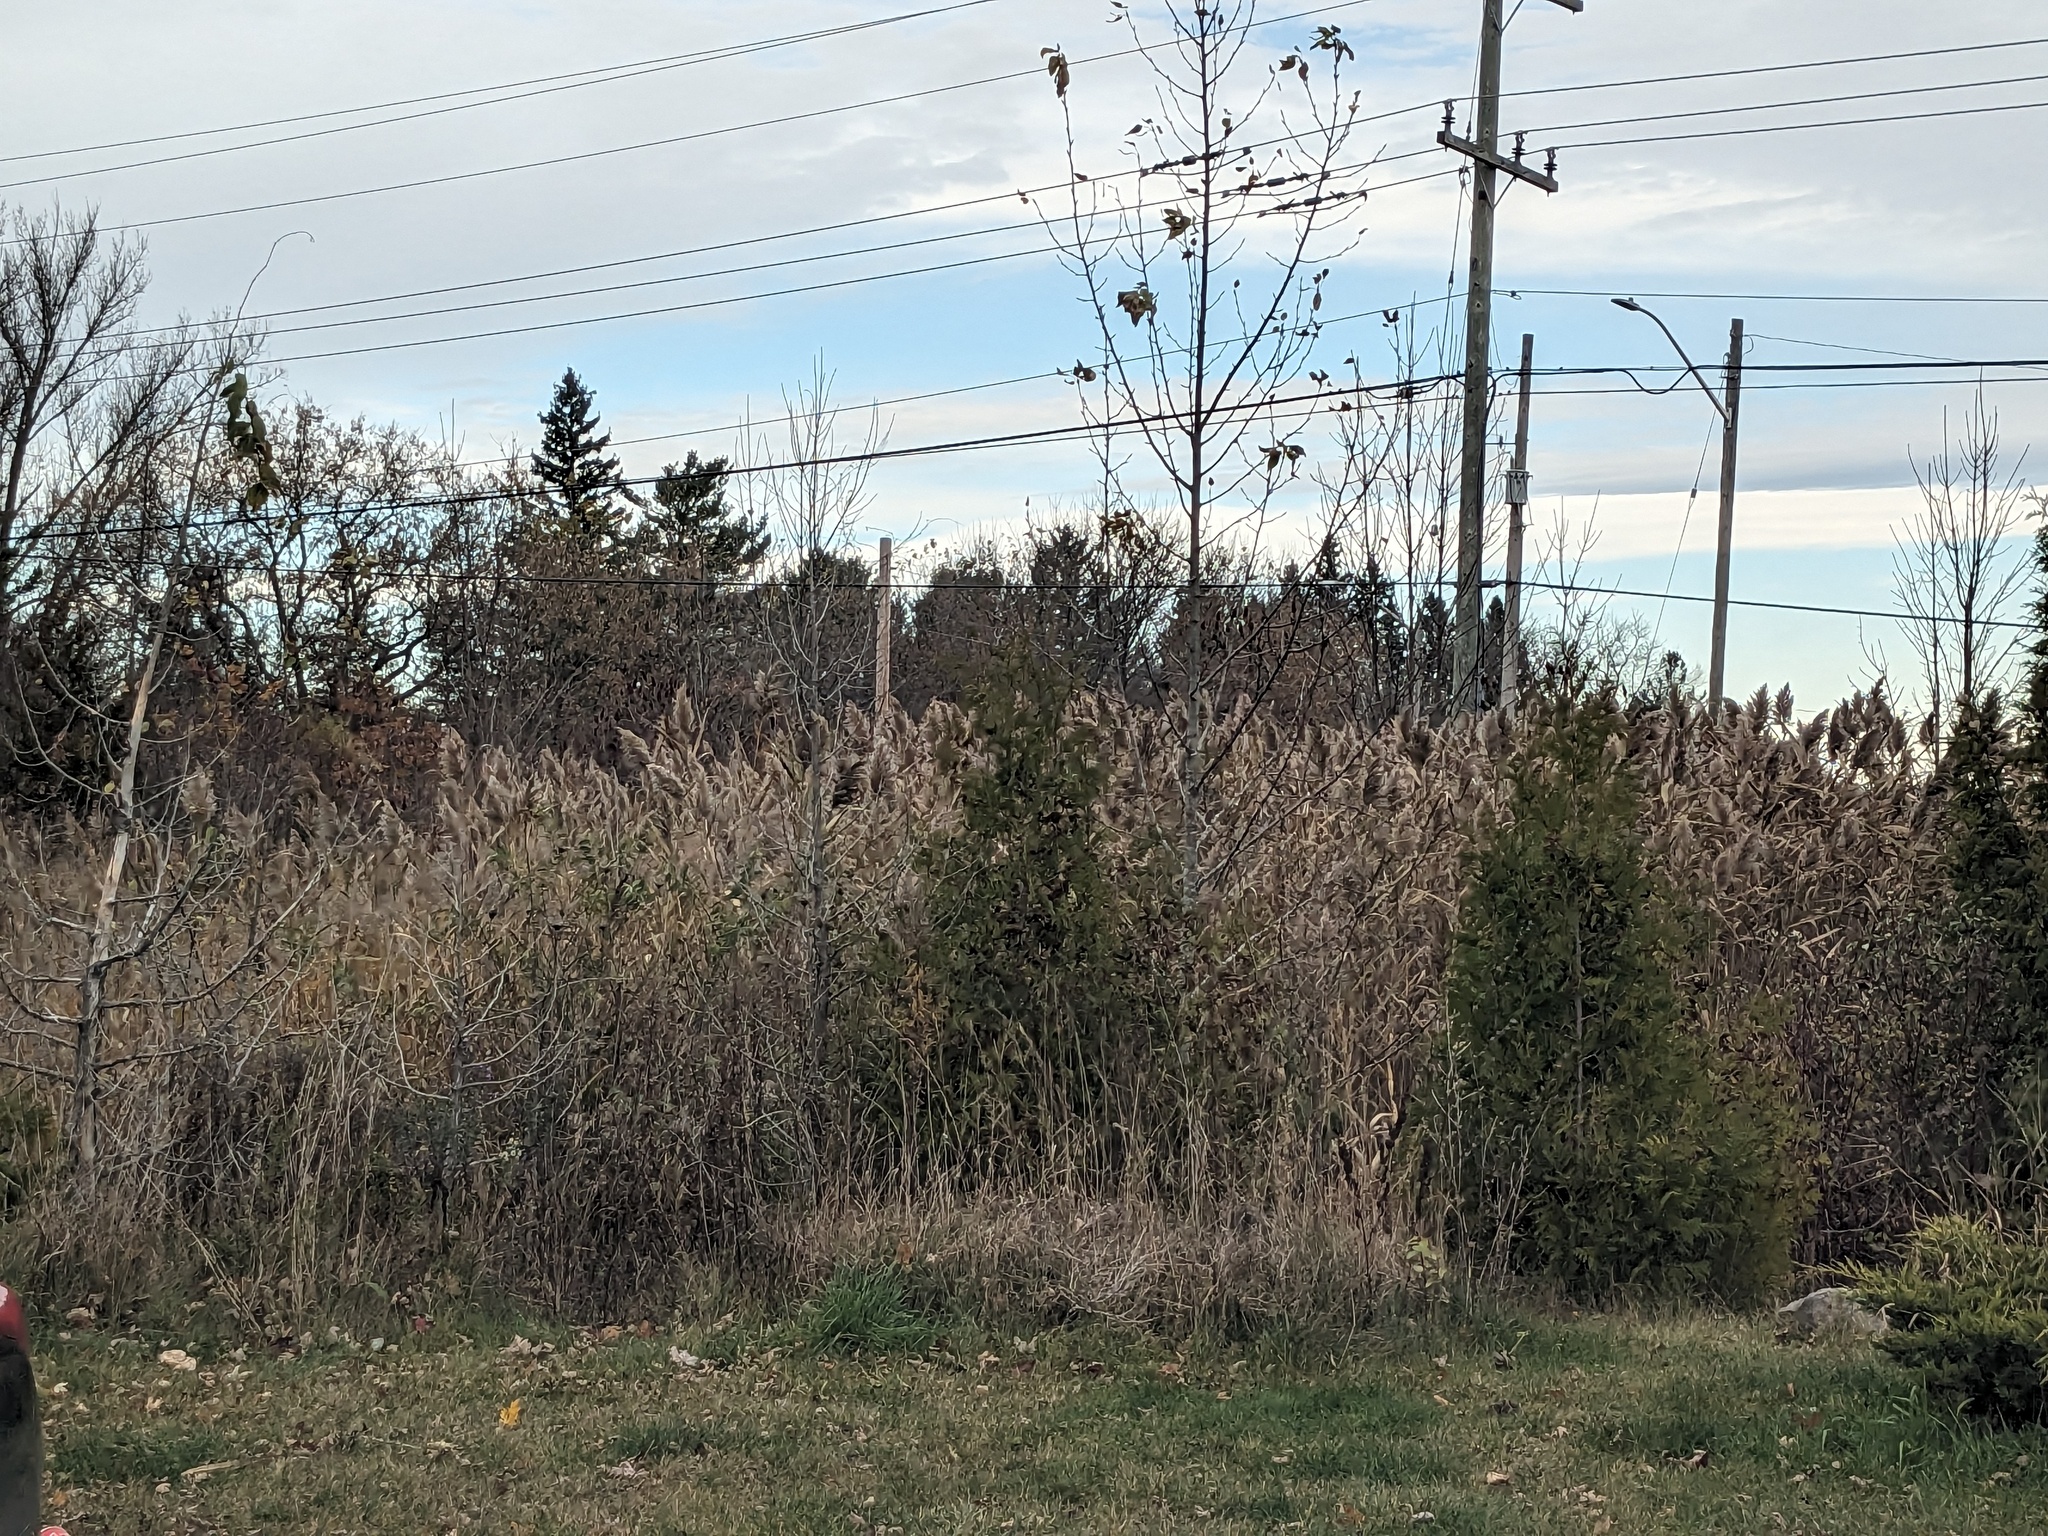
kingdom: Plantae
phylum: Tracheophyta
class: Liliopsida
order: Poales
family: Poaceae
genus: Phragmites
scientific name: Phragmites australis
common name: Common reed
